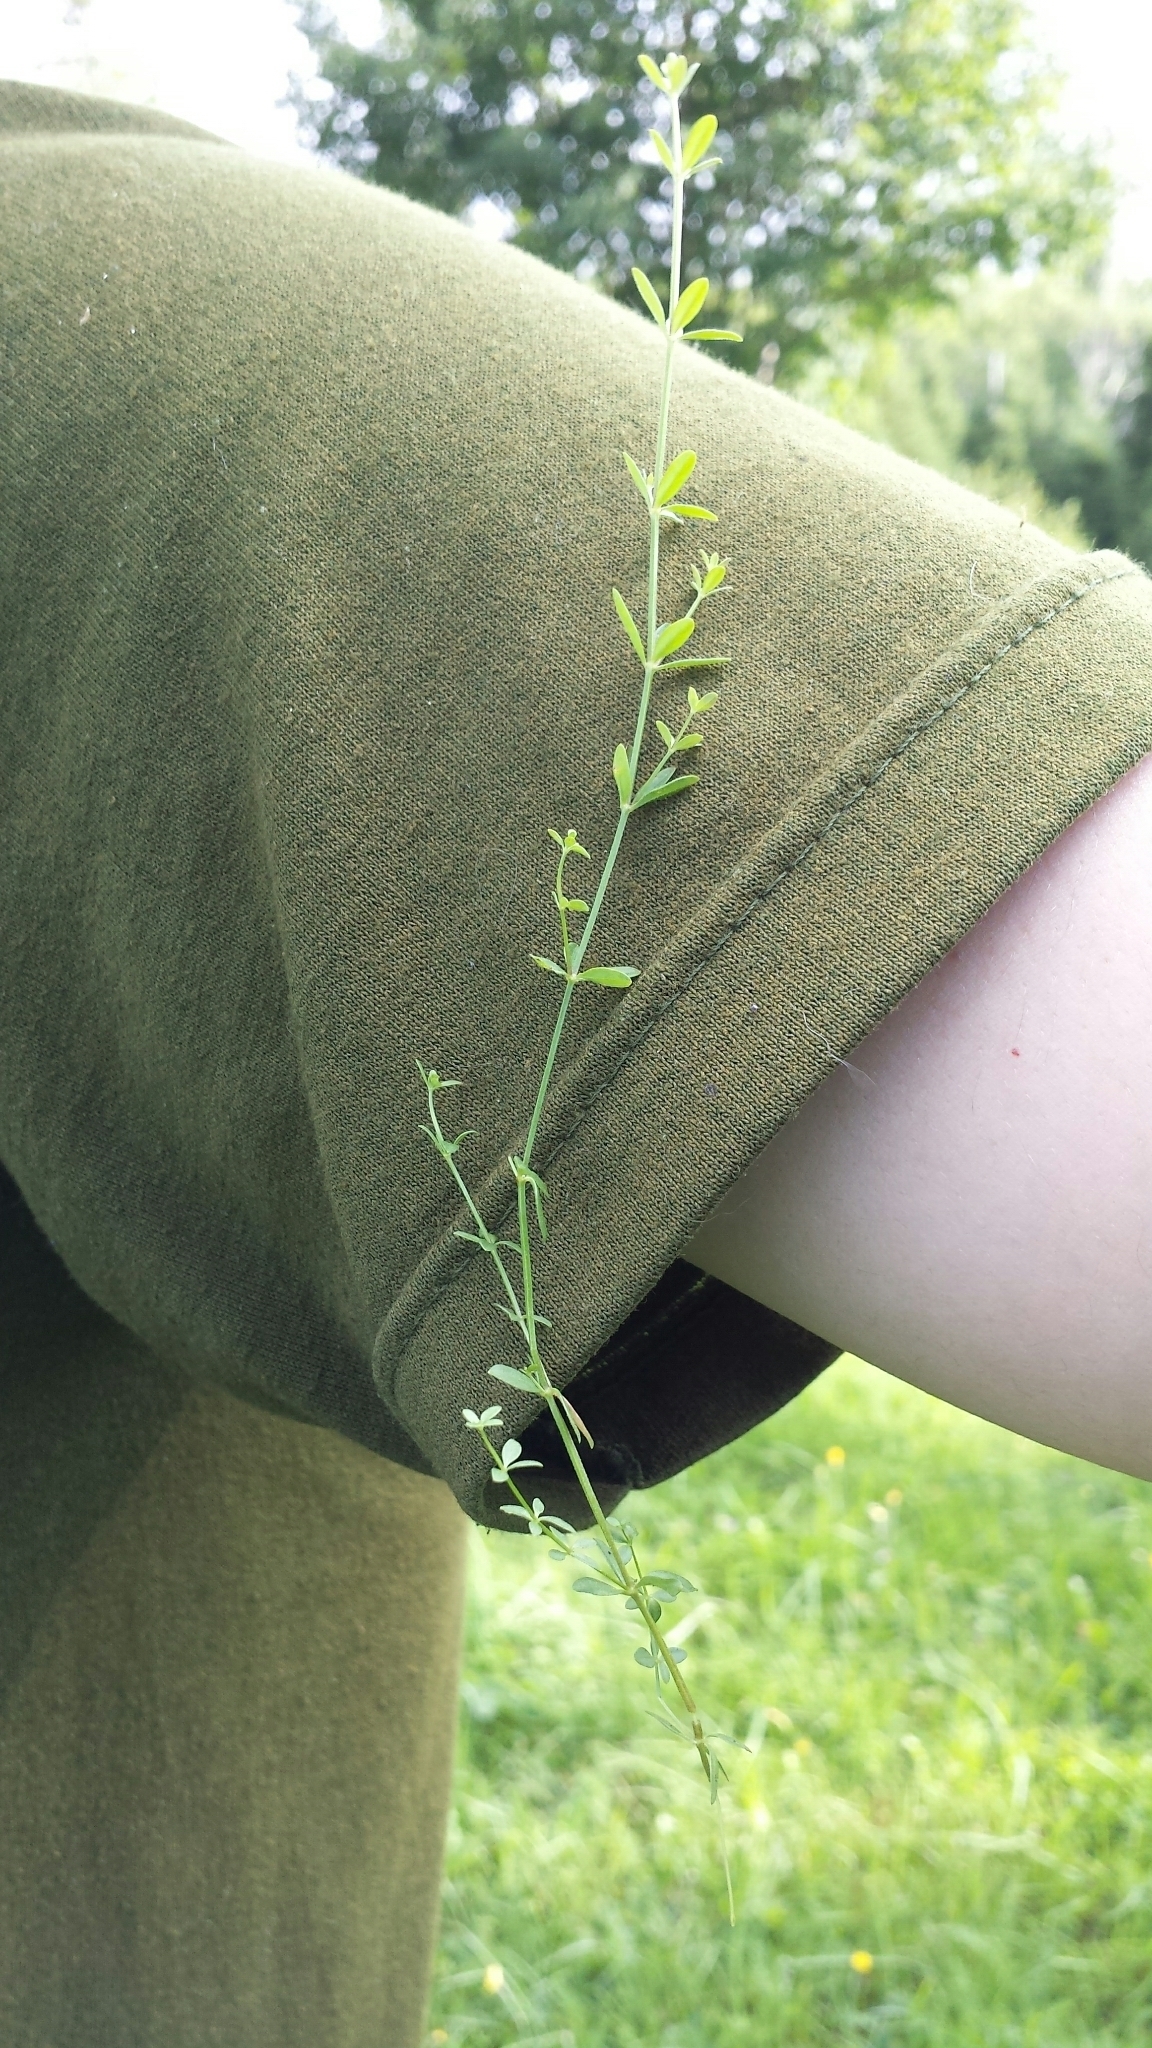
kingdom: Plantae
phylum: Tracheophyta
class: Magnoliopsida
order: Gentianales
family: Rubiaceae
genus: Galium
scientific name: Galium trifidum
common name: Small bedstraw
